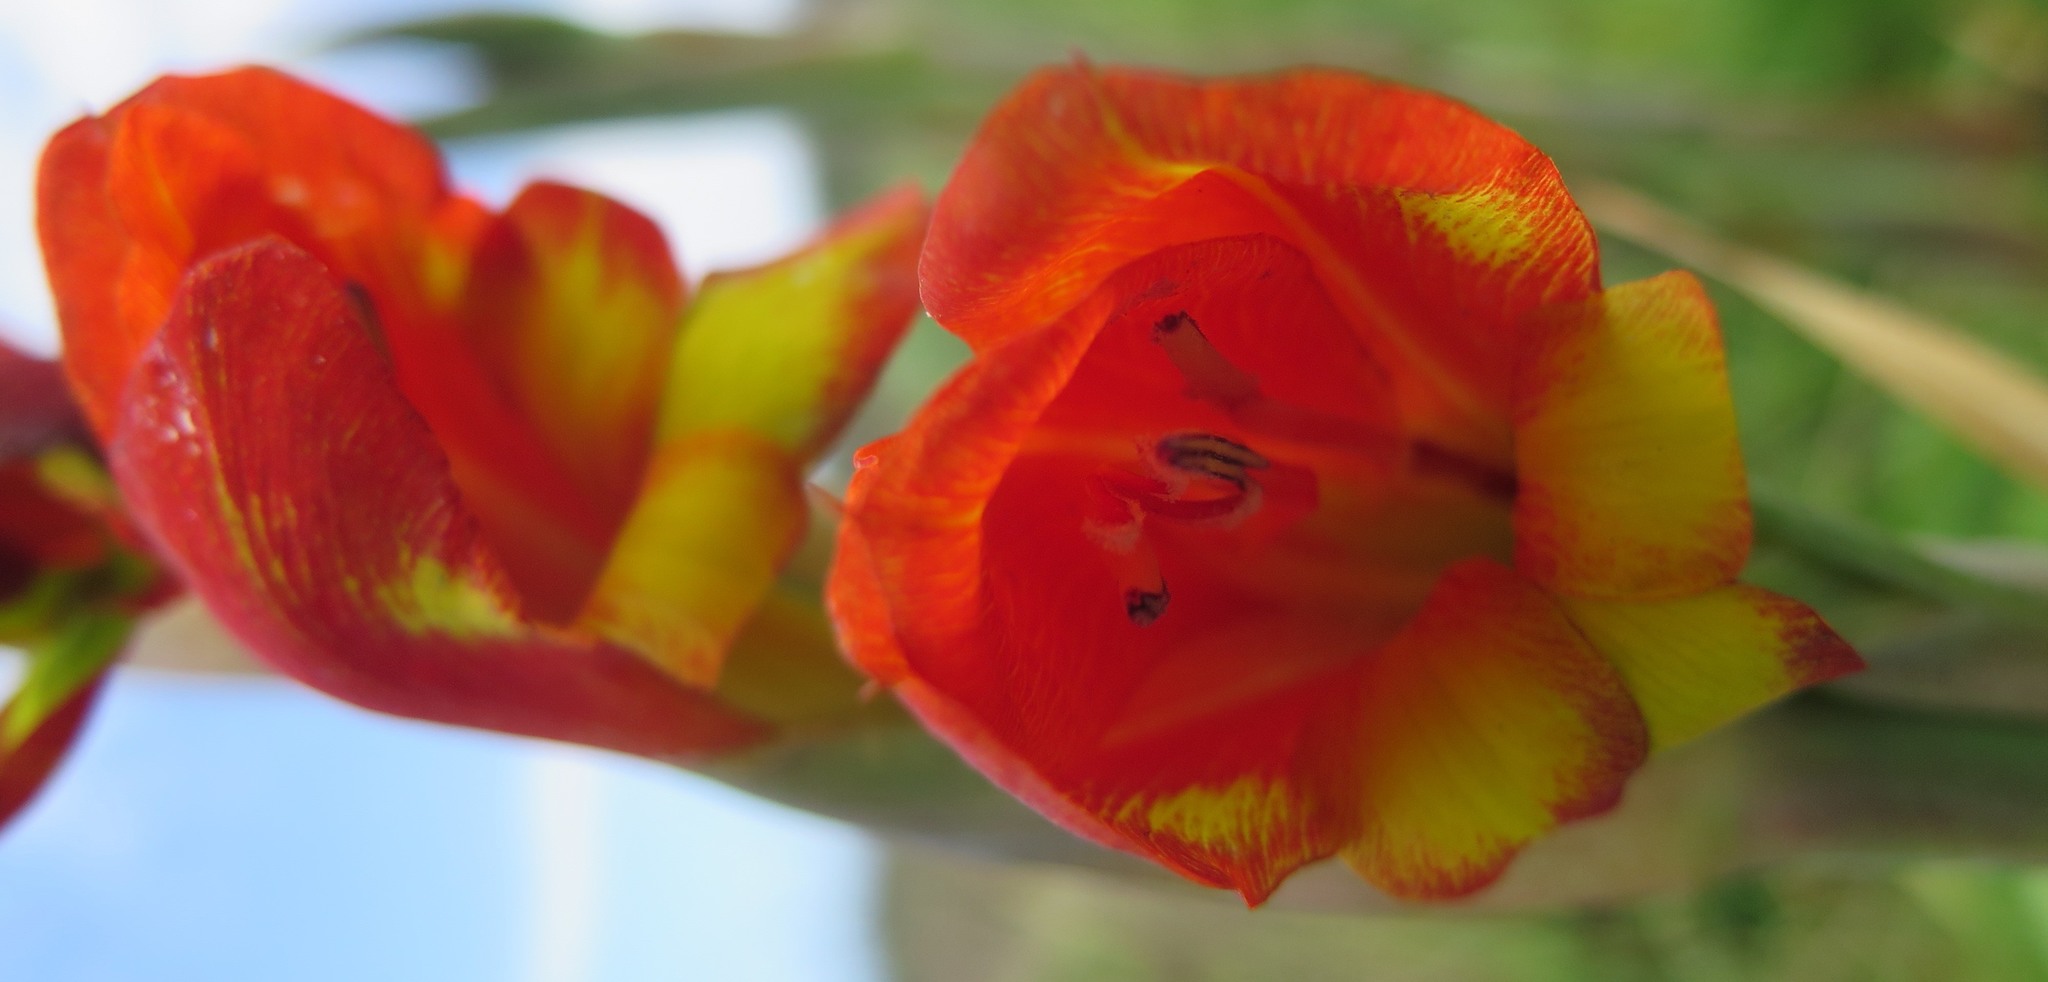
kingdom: Plantae
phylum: Tracheophyta
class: Liliopsida
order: Asparagales
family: Iridaceae
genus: Gladiolus
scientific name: Gladiolus dalenii
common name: Cornflag
